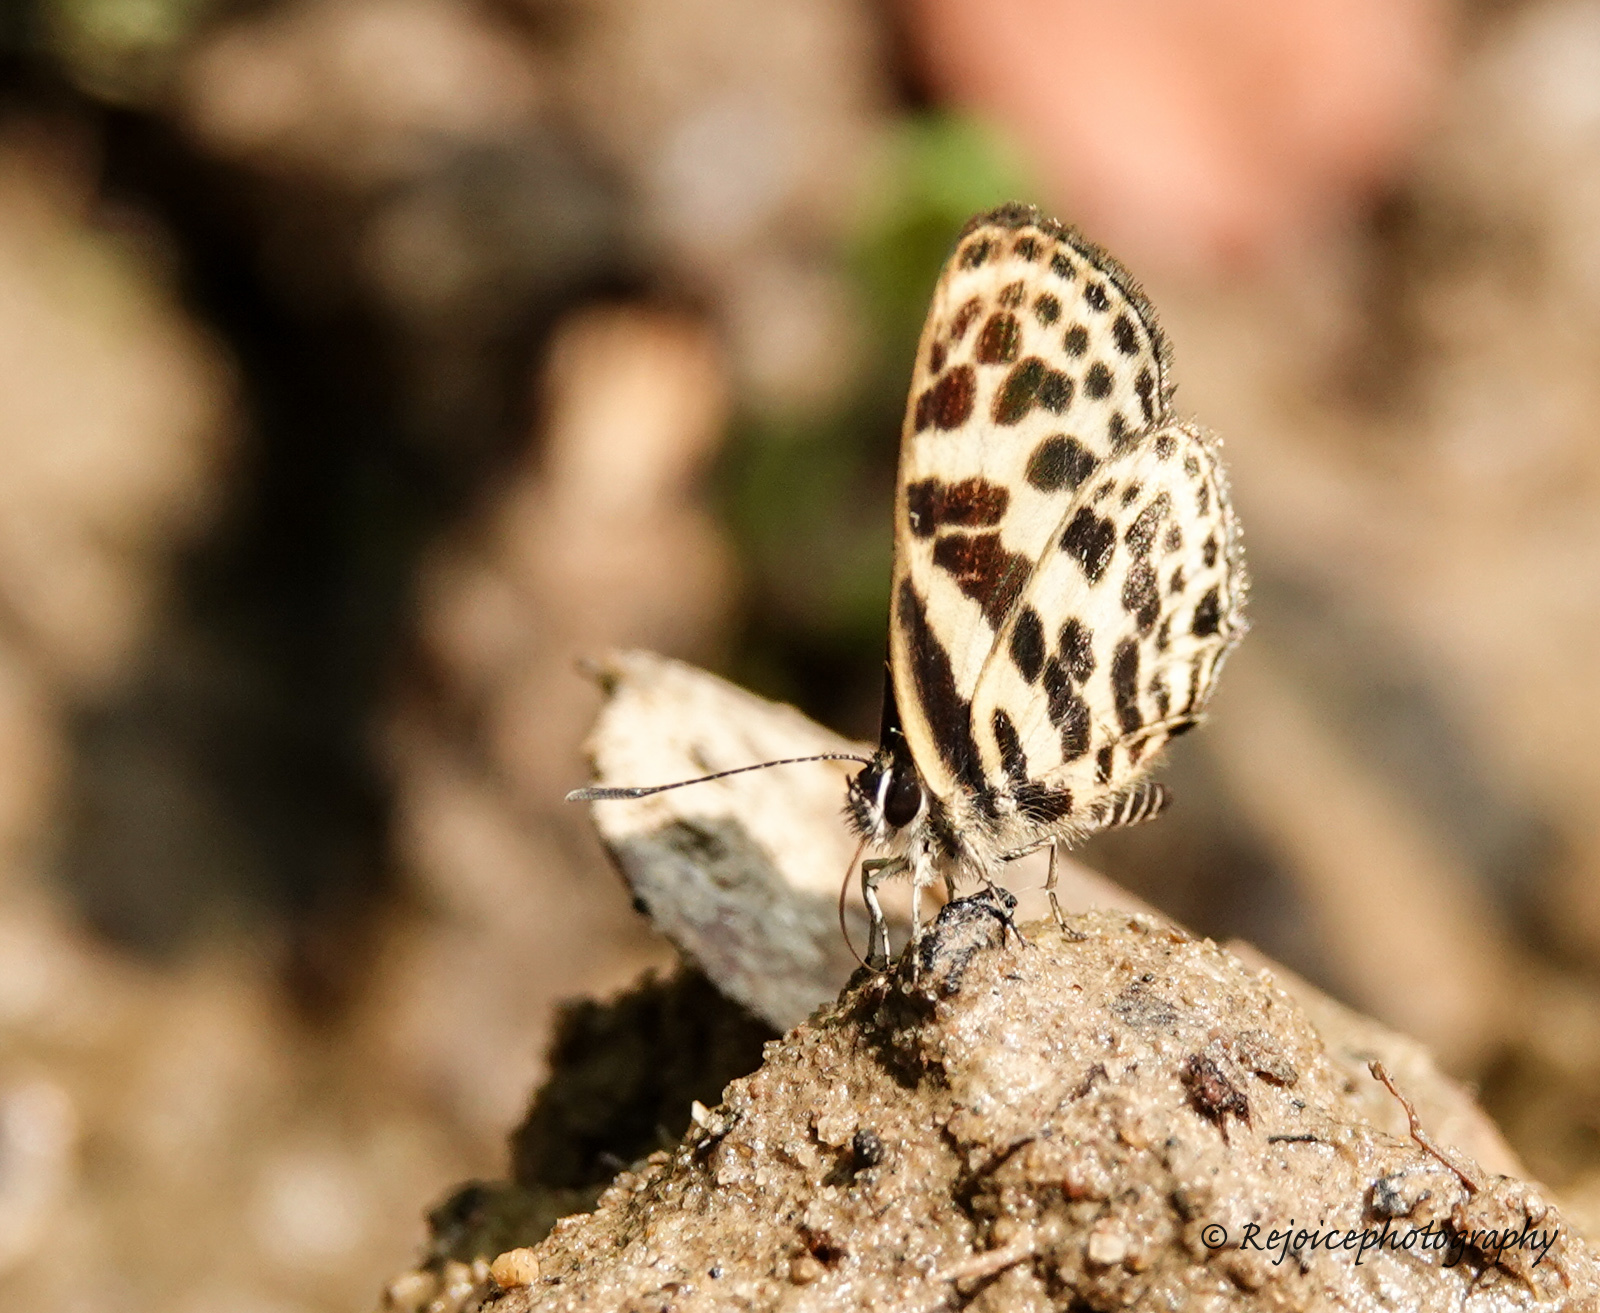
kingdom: Animalia
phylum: Arthropoda
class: Insecta
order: Lepidoptera
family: Lycaenidae
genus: Tarucus
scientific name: Tarucus
